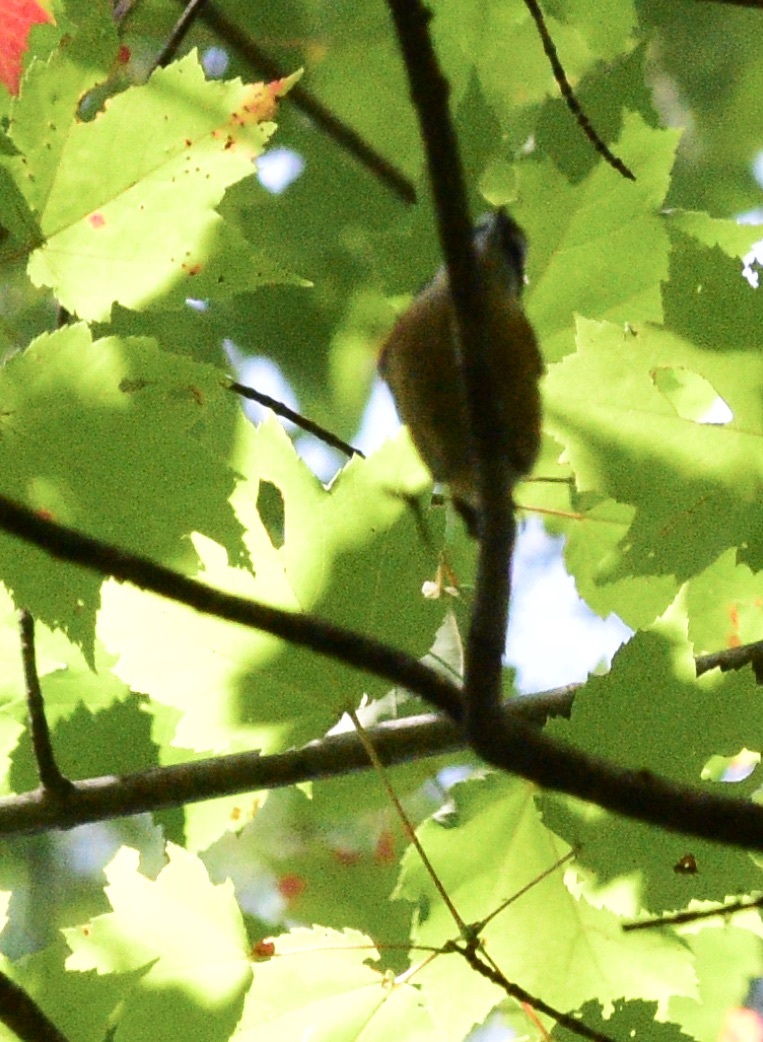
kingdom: Animalia
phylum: Chordata
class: Aves
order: Passeriformes
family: Sittidae
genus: Sitta
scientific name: Sitta canadensis
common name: Red-breasted nuthatch
